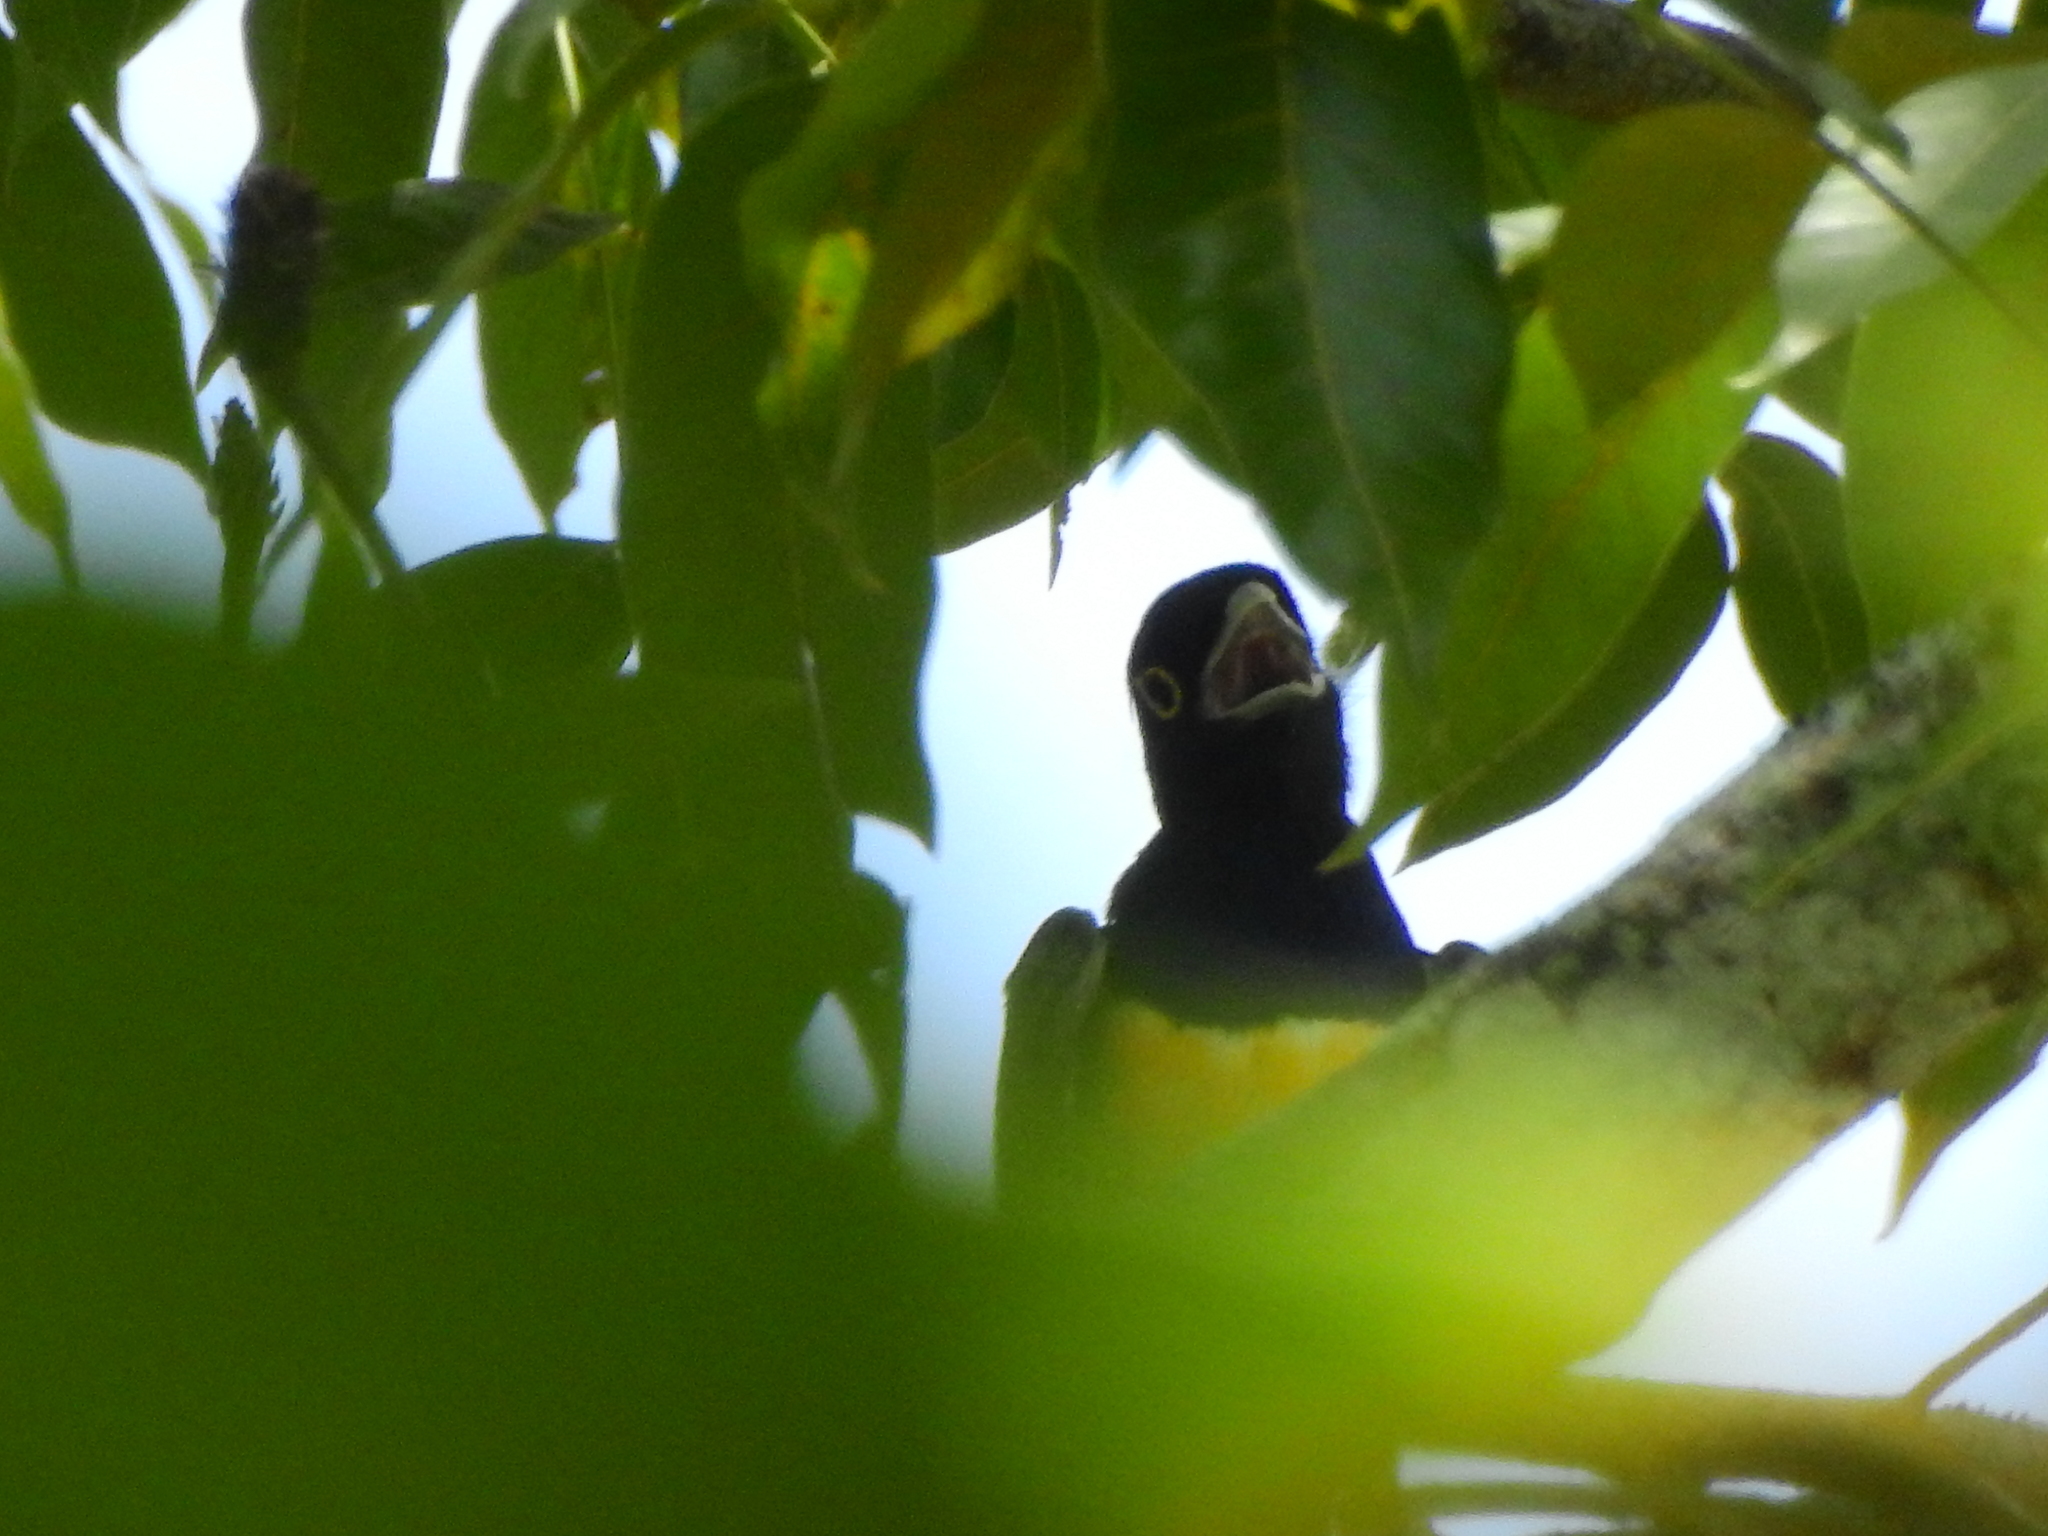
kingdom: Animalia
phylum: Chordata
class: Aves
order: Trogoniformes
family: Trogonidae
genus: Trogon
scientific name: Trogon caligatus
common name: Gartered trogon
